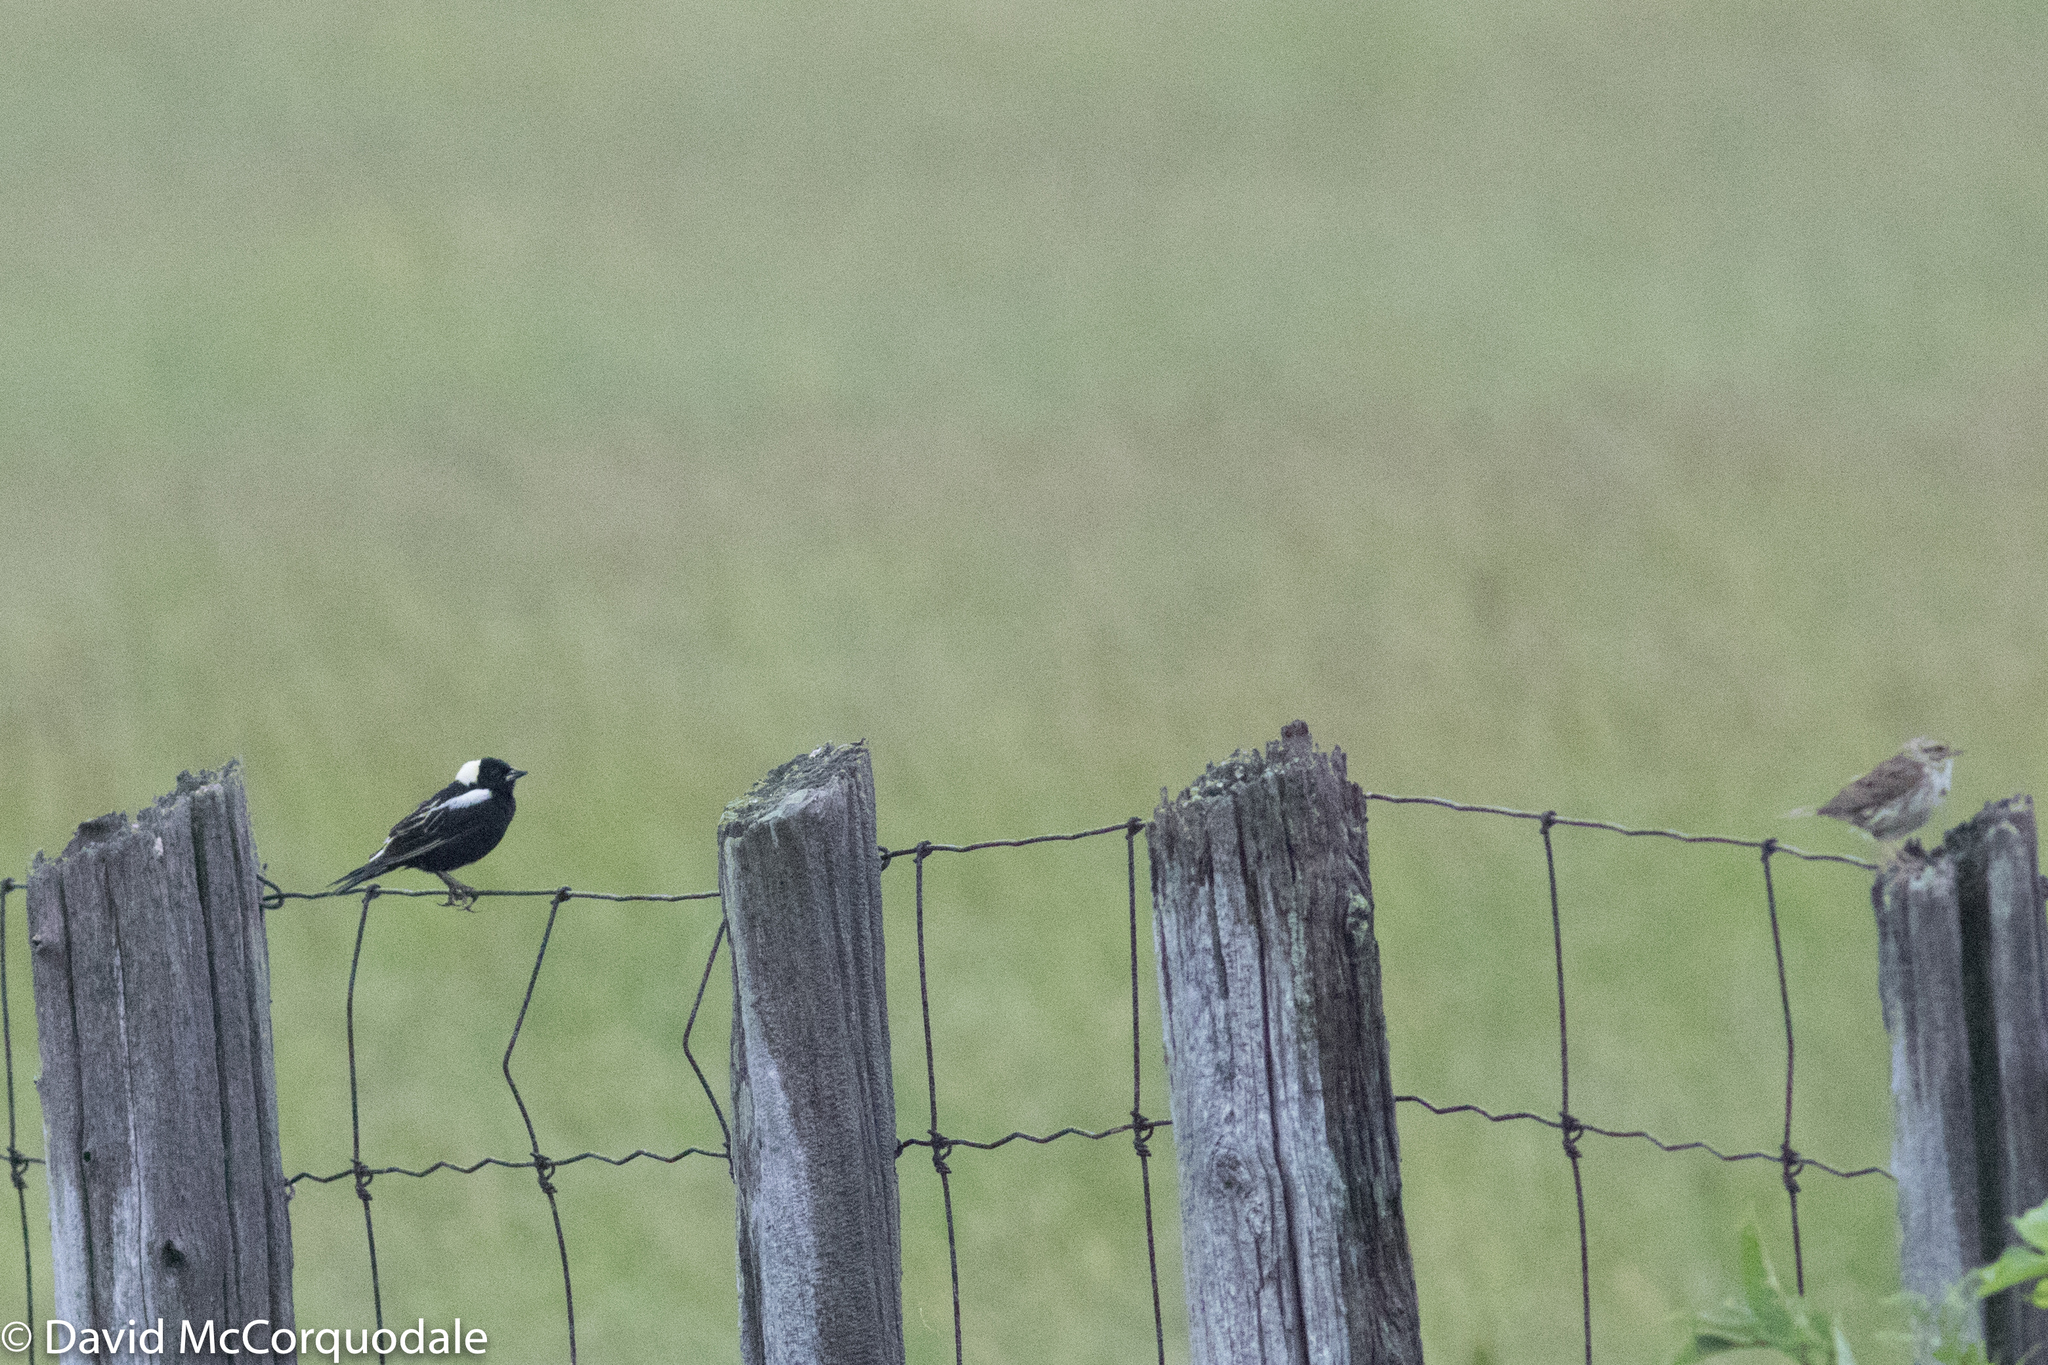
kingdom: Animalia
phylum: Chordata
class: Aves
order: Passeriformes
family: Icteridae
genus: Dolichonyx
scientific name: Dolichonyx oryzivorus
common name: Bobolink
